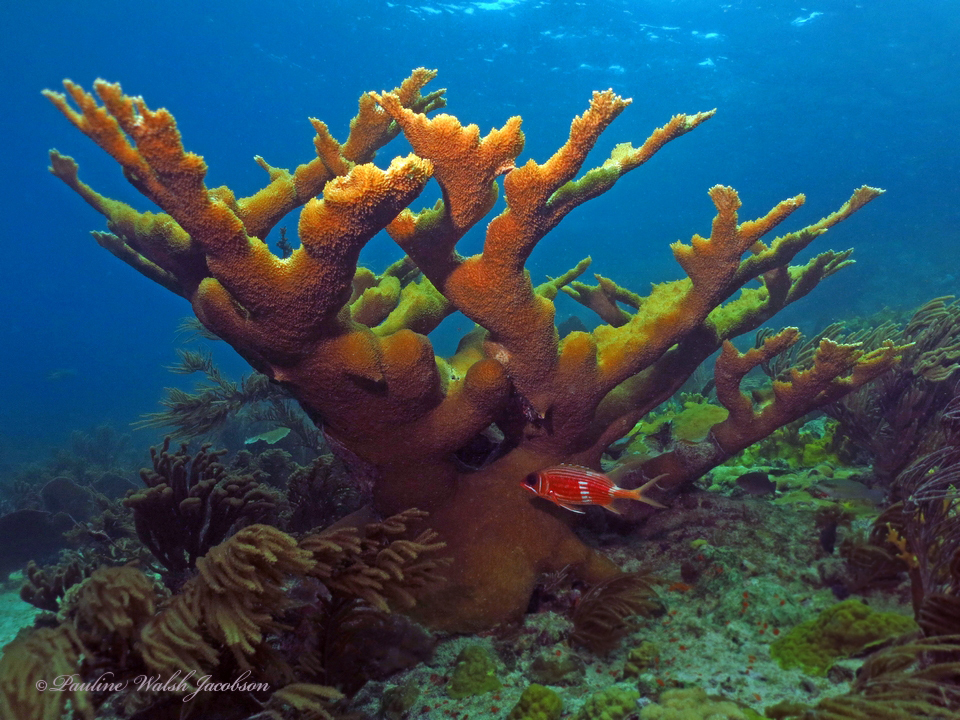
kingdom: Animalia
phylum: Cnidaria
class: Anthozoa
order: Scleractinia
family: Acroporidae
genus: Acropora
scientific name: Acropora palmata
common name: Elkhorn coral
